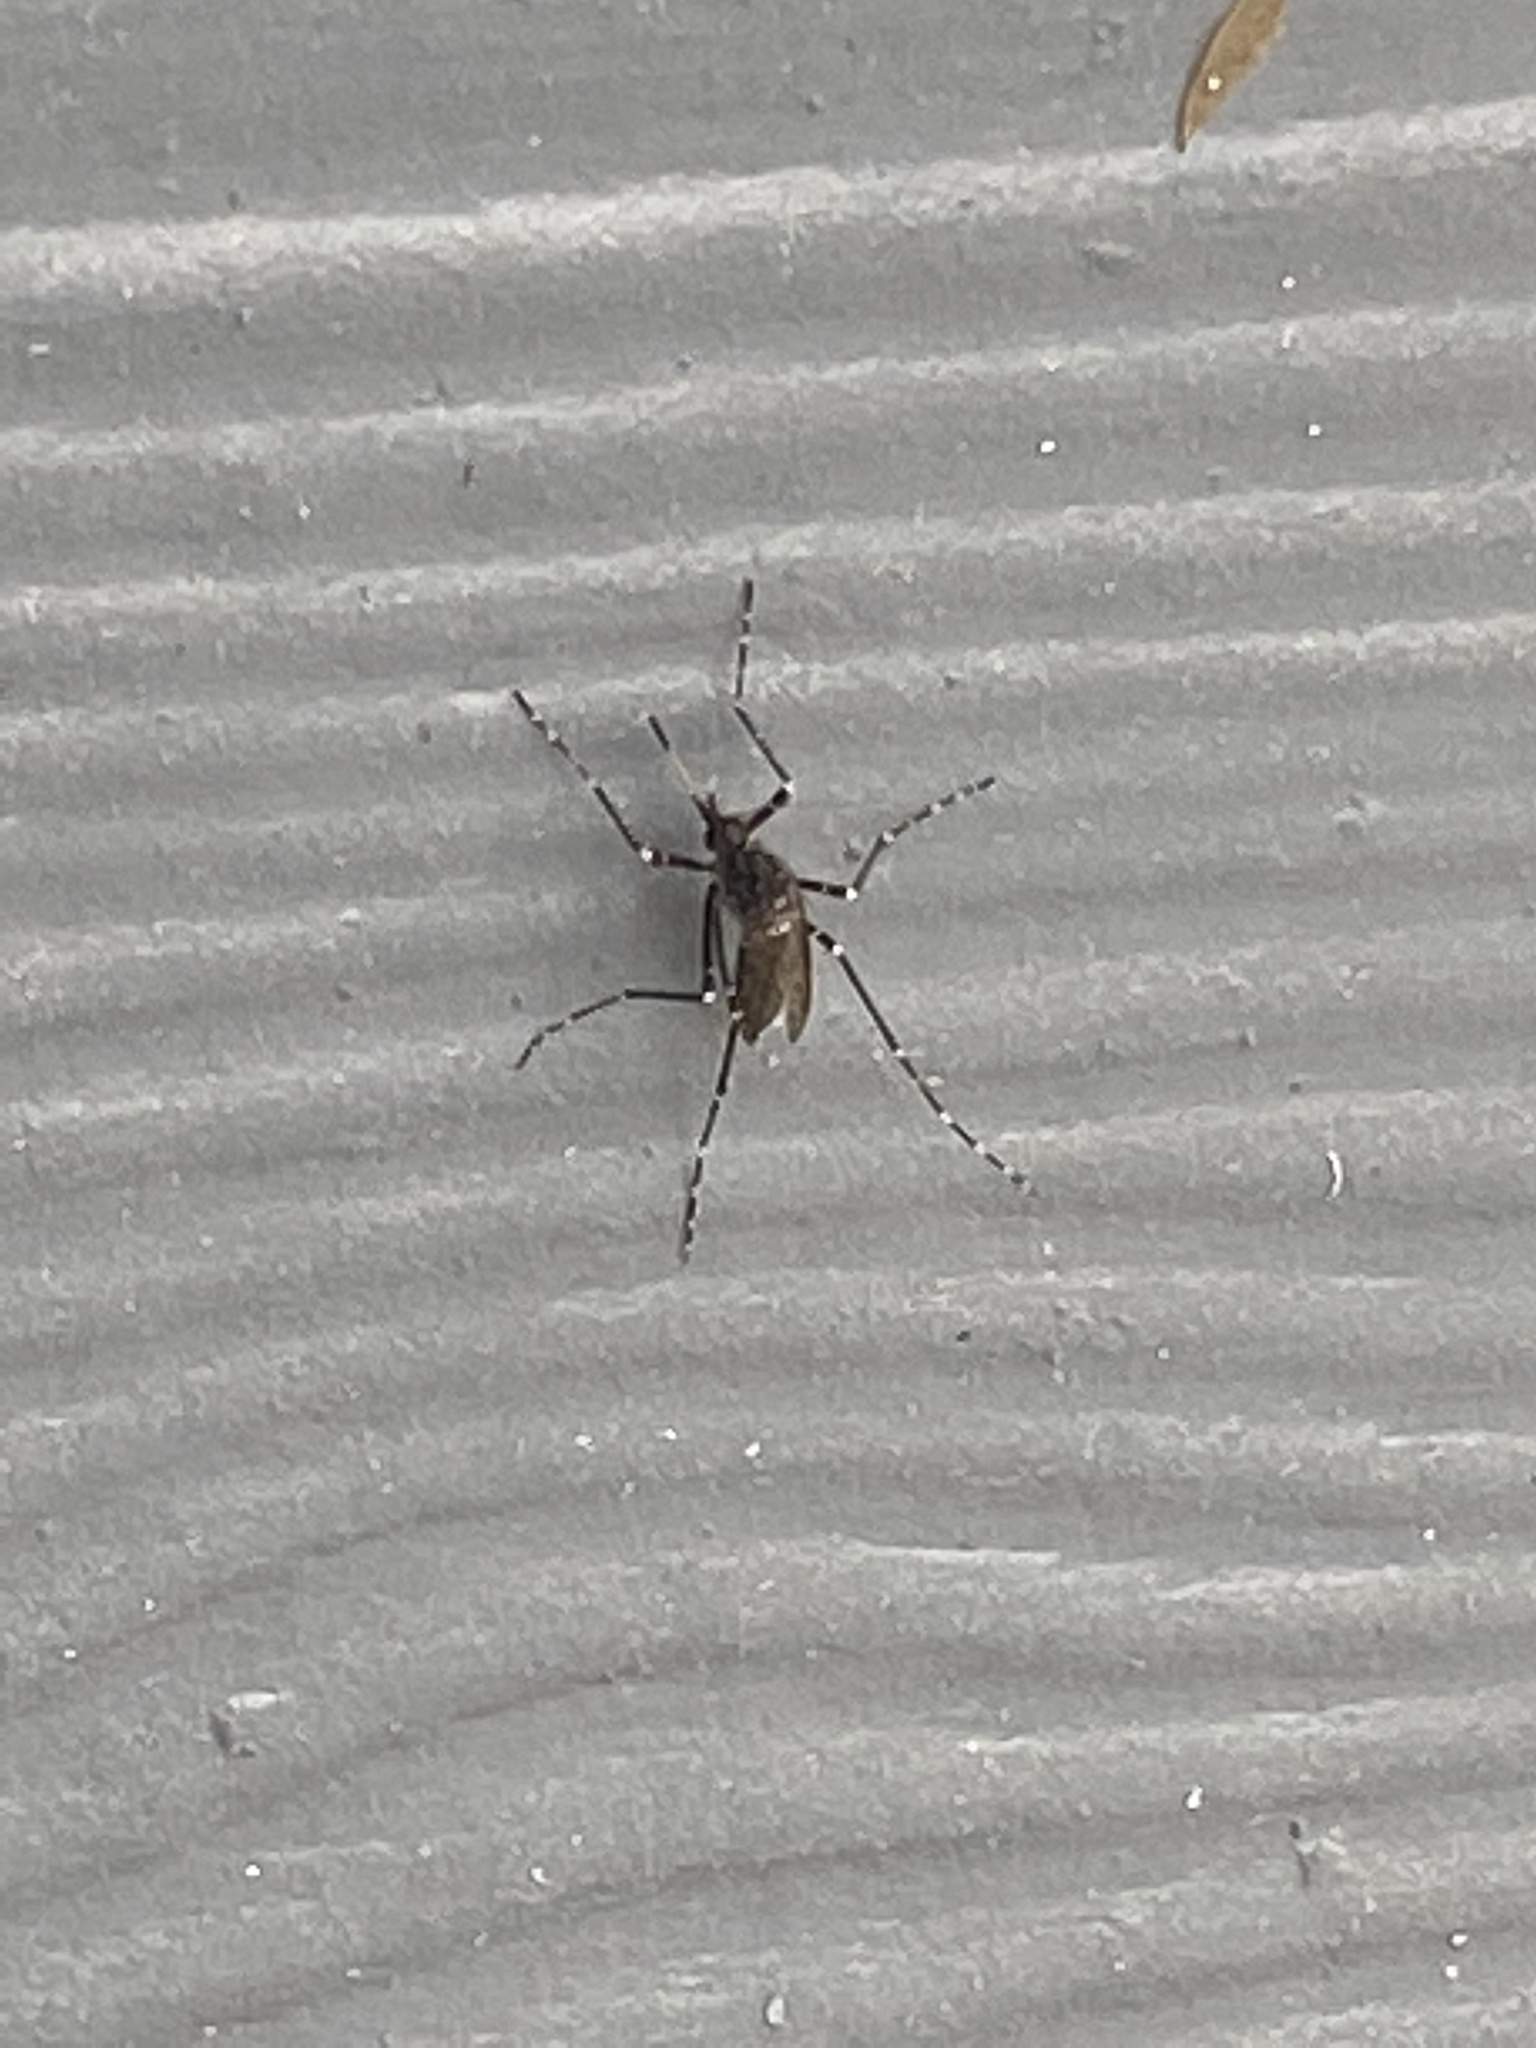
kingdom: Animalia
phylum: Arthropoda
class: Insecta
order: Diptera
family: Culicidae
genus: Psorophora
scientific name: Psorophora columbiae
